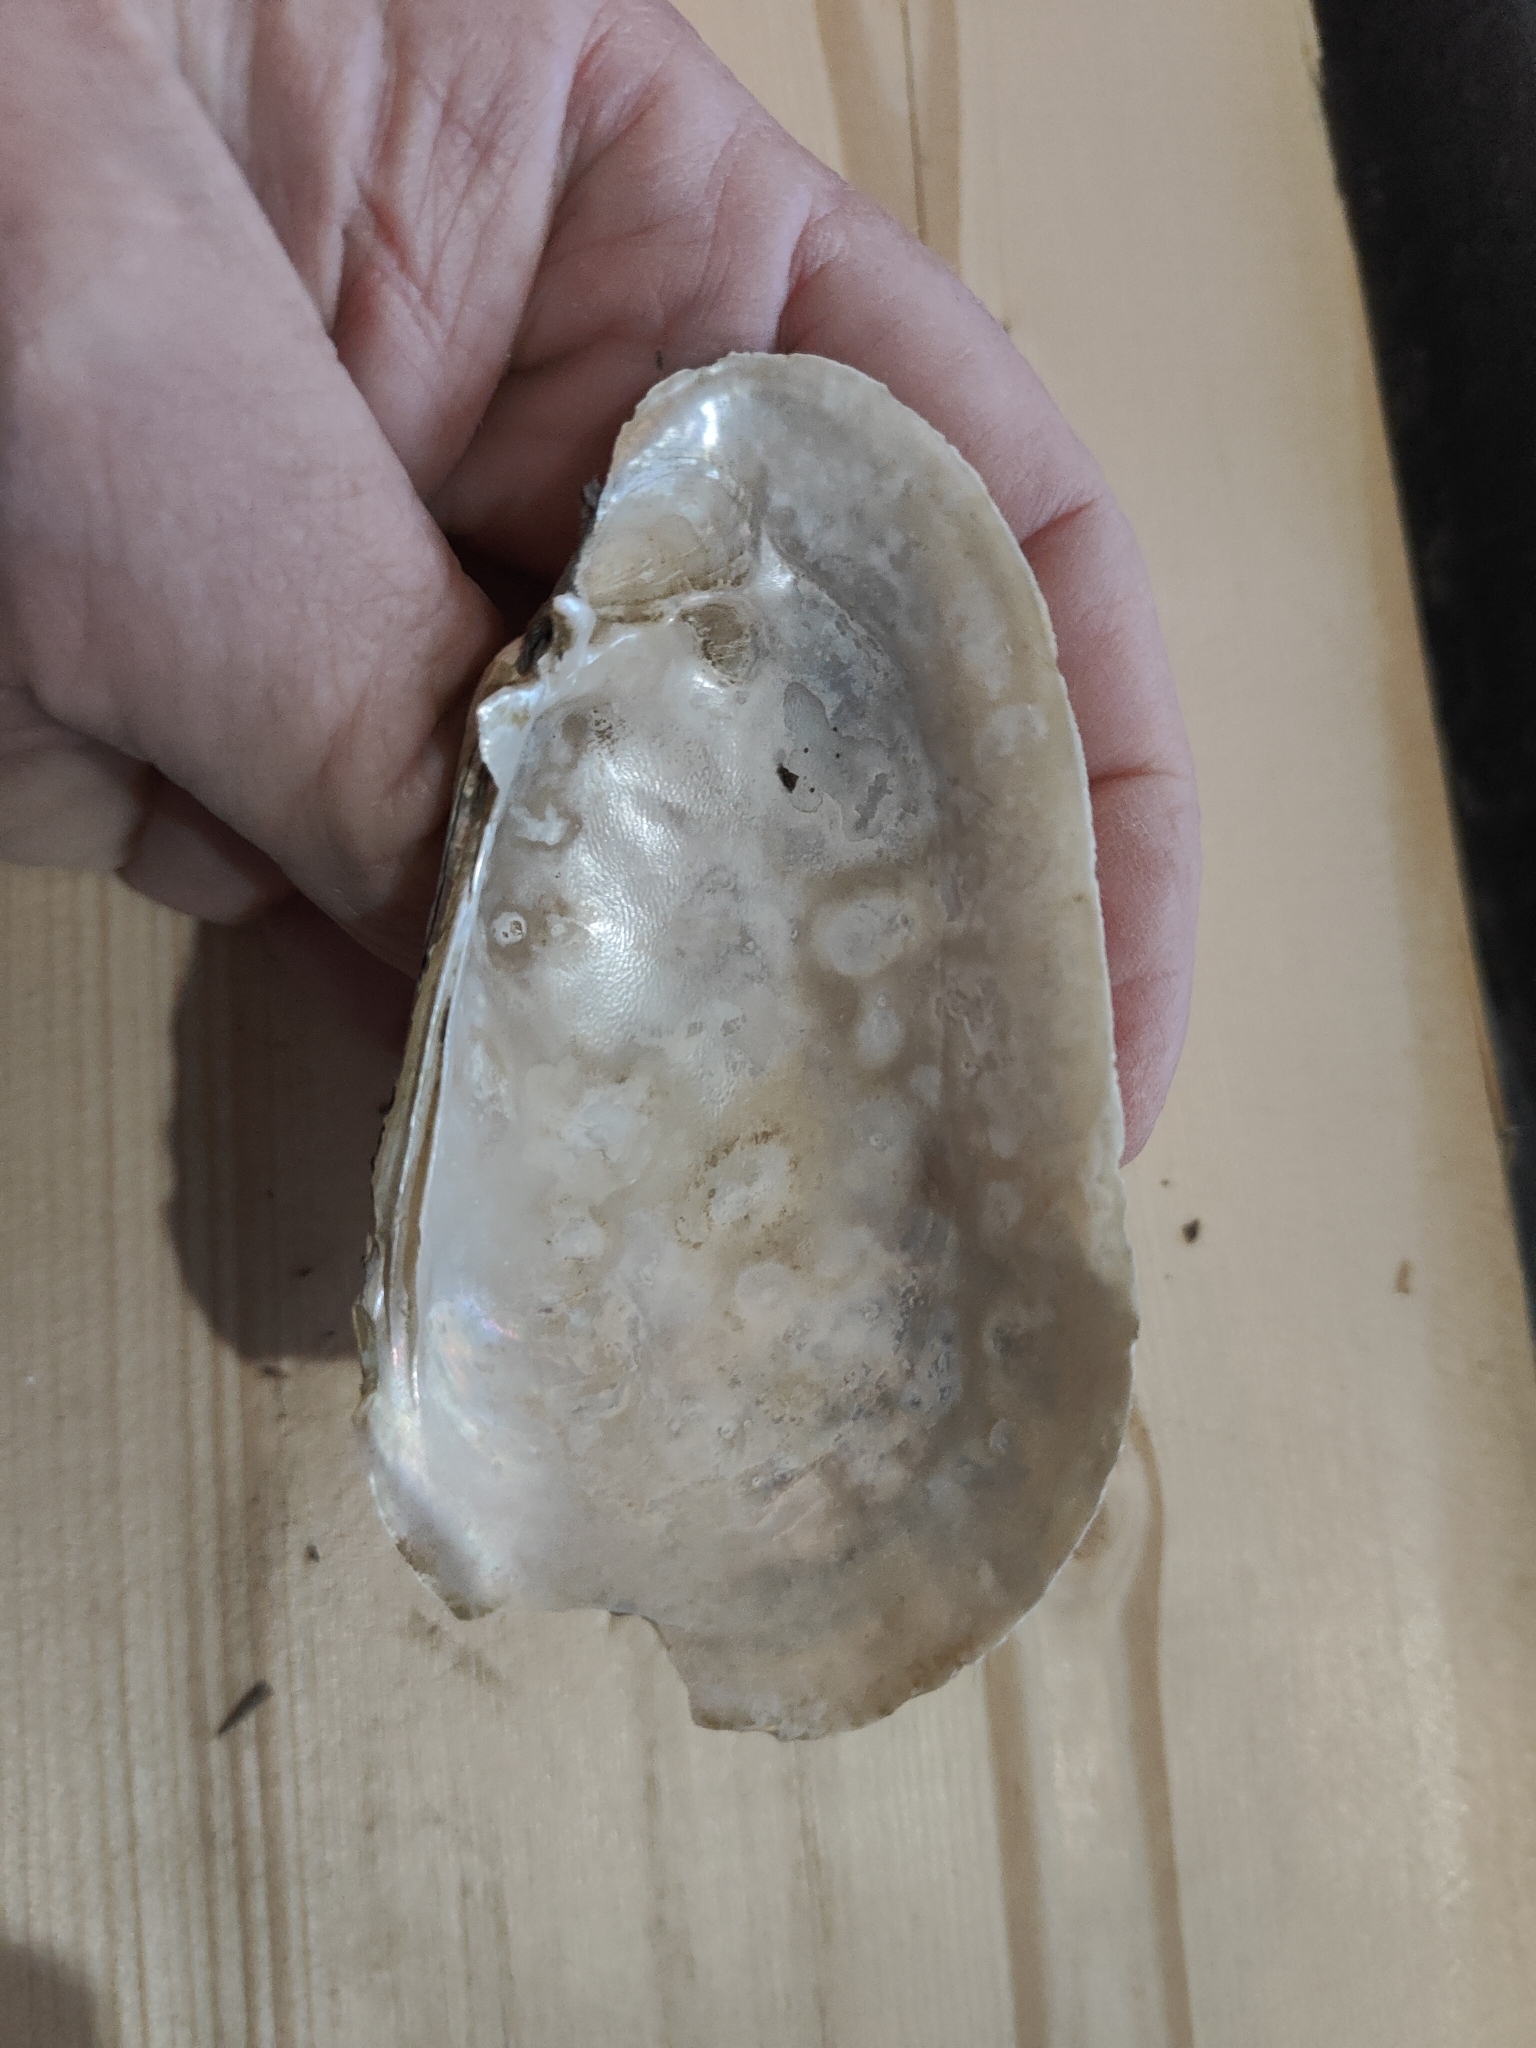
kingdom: Animalia
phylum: Mollusca
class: Bivalvia
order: Unionida
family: Unionidae
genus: Lampsilis
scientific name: Lampsilis siliquoidea
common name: Fatmucket
